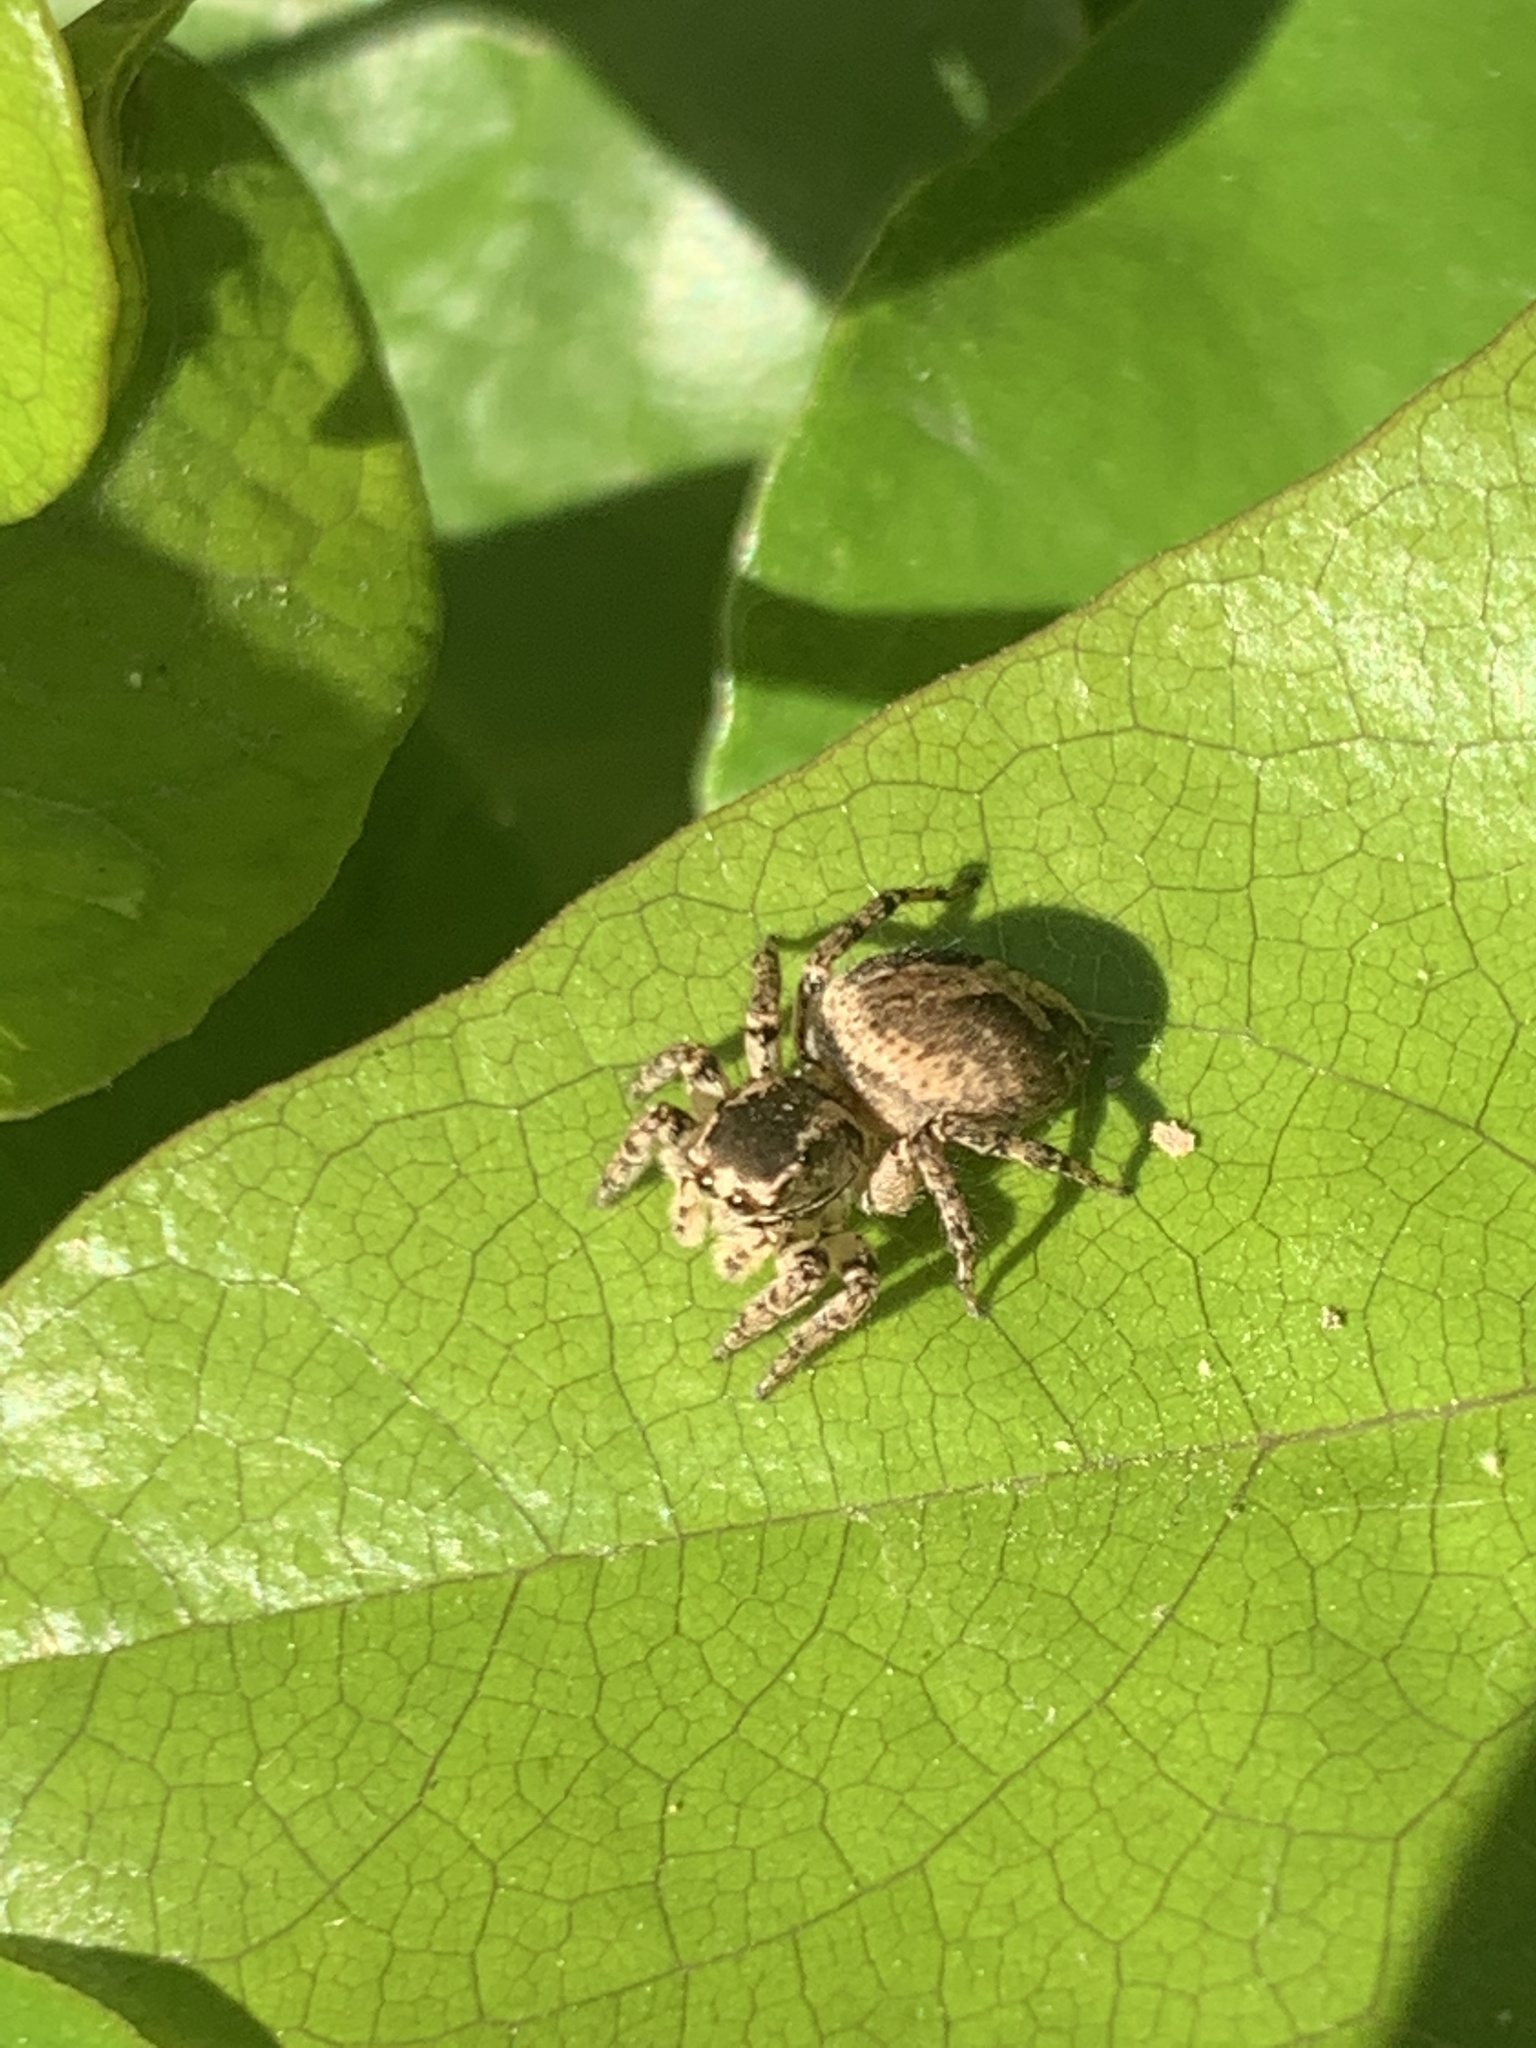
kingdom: Animalia
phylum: Arthropoda
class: Arachnida
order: Araneae
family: Salticidae
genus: Aphirape
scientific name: Aphirape
